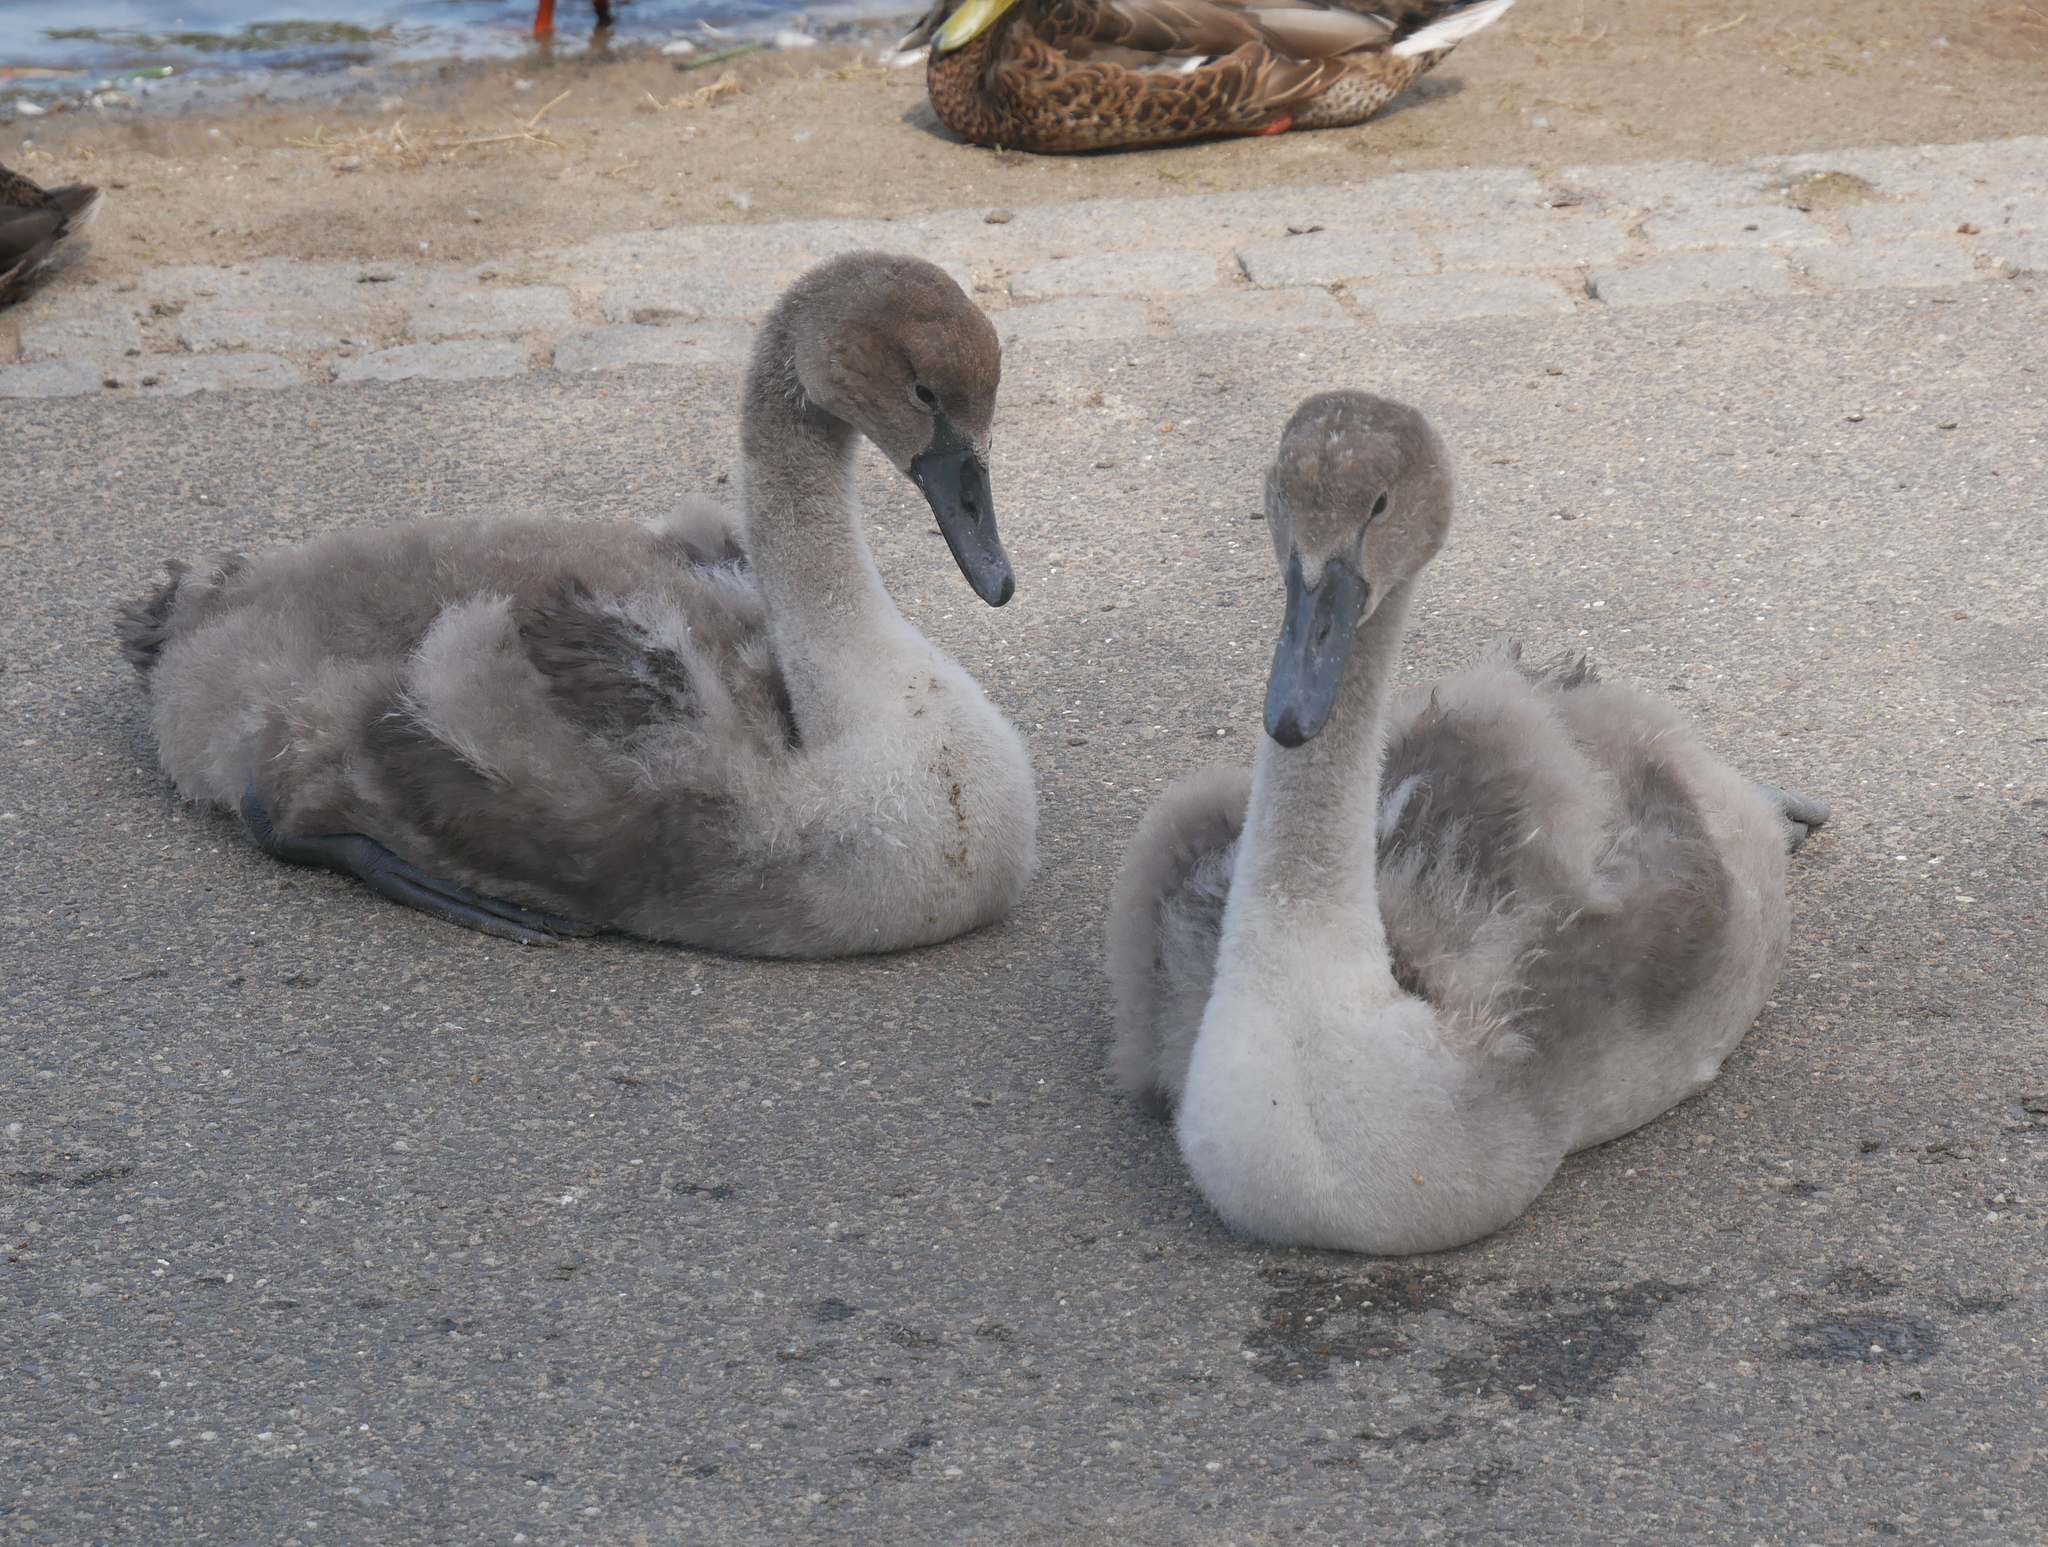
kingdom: Animalia
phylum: Chordata
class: Aves
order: Anseriformes
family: Anatidae
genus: Cygnus
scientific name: Cygnus olor
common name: Mute swan
